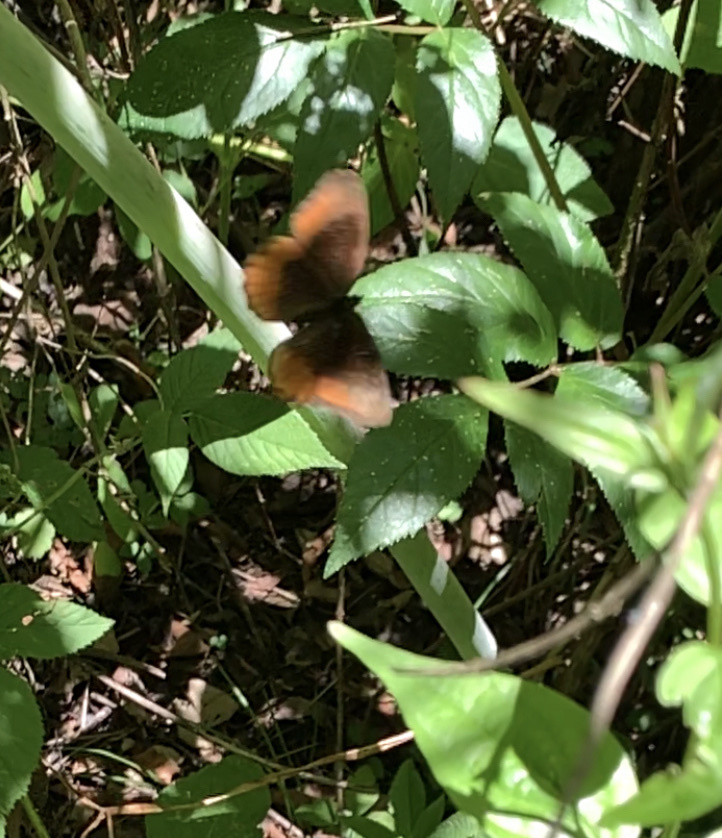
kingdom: Animalia
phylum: Arthropoda
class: Insecta
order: Lepidoptera
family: Nymphalidae
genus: Pedaliodes
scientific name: Pedaliodes napaea
